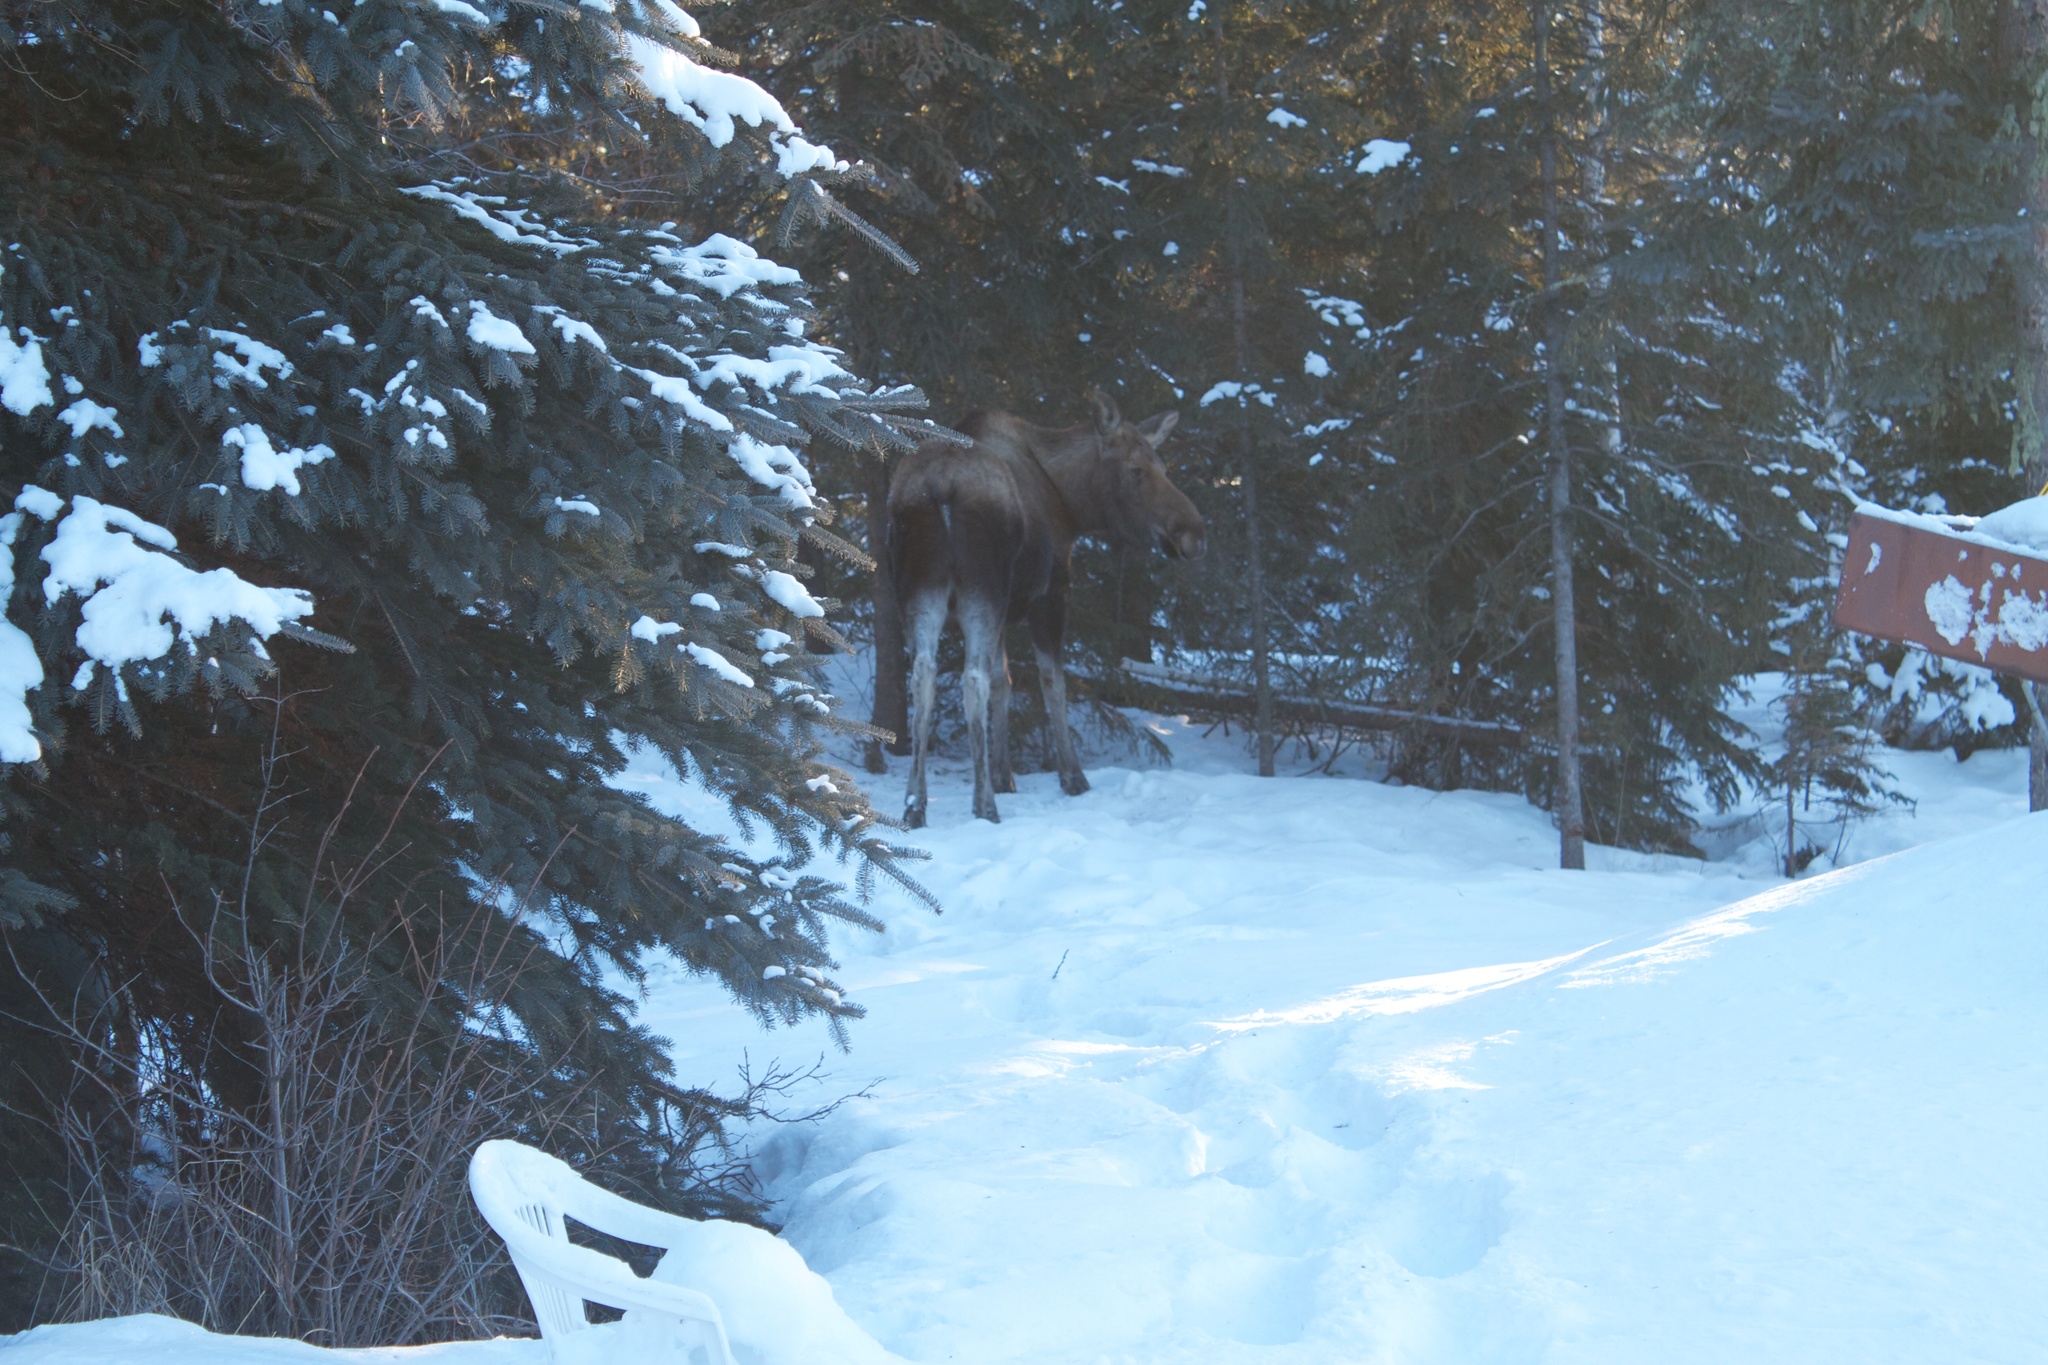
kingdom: Animalia
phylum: Chordata
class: Mammalia
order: Artiodactyla
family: Cervidae
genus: Alces
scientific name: Alces alces
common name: Moose
